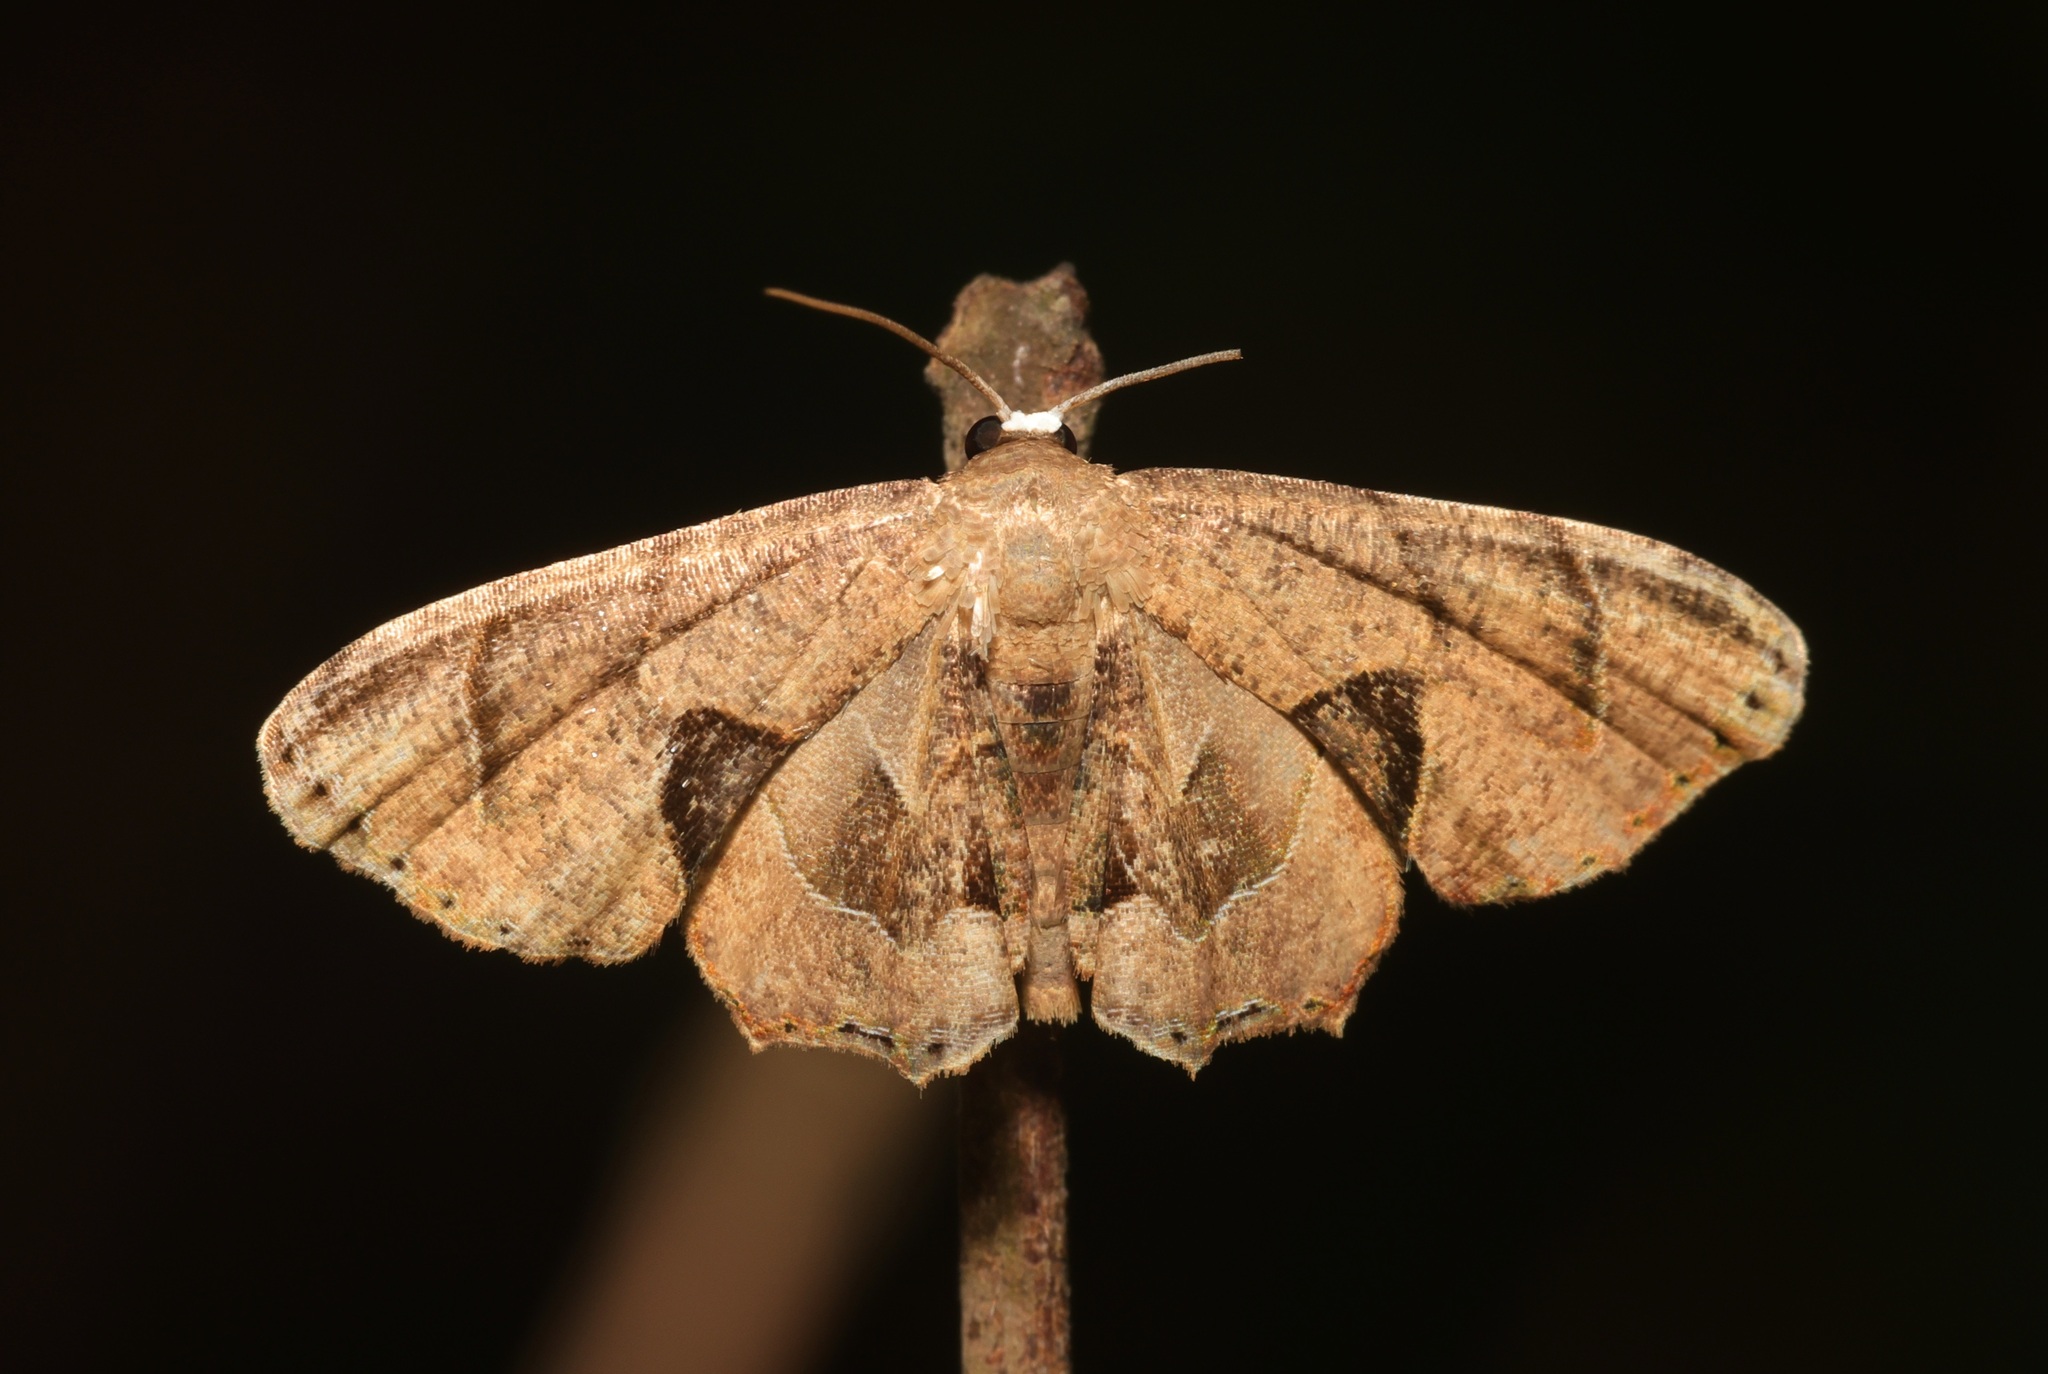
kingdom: Animalia
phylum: Arthropoda
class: Insecta
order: Lepidoptera
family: Uraniidae
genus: Phazaca
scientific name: Phazaca leucocera
